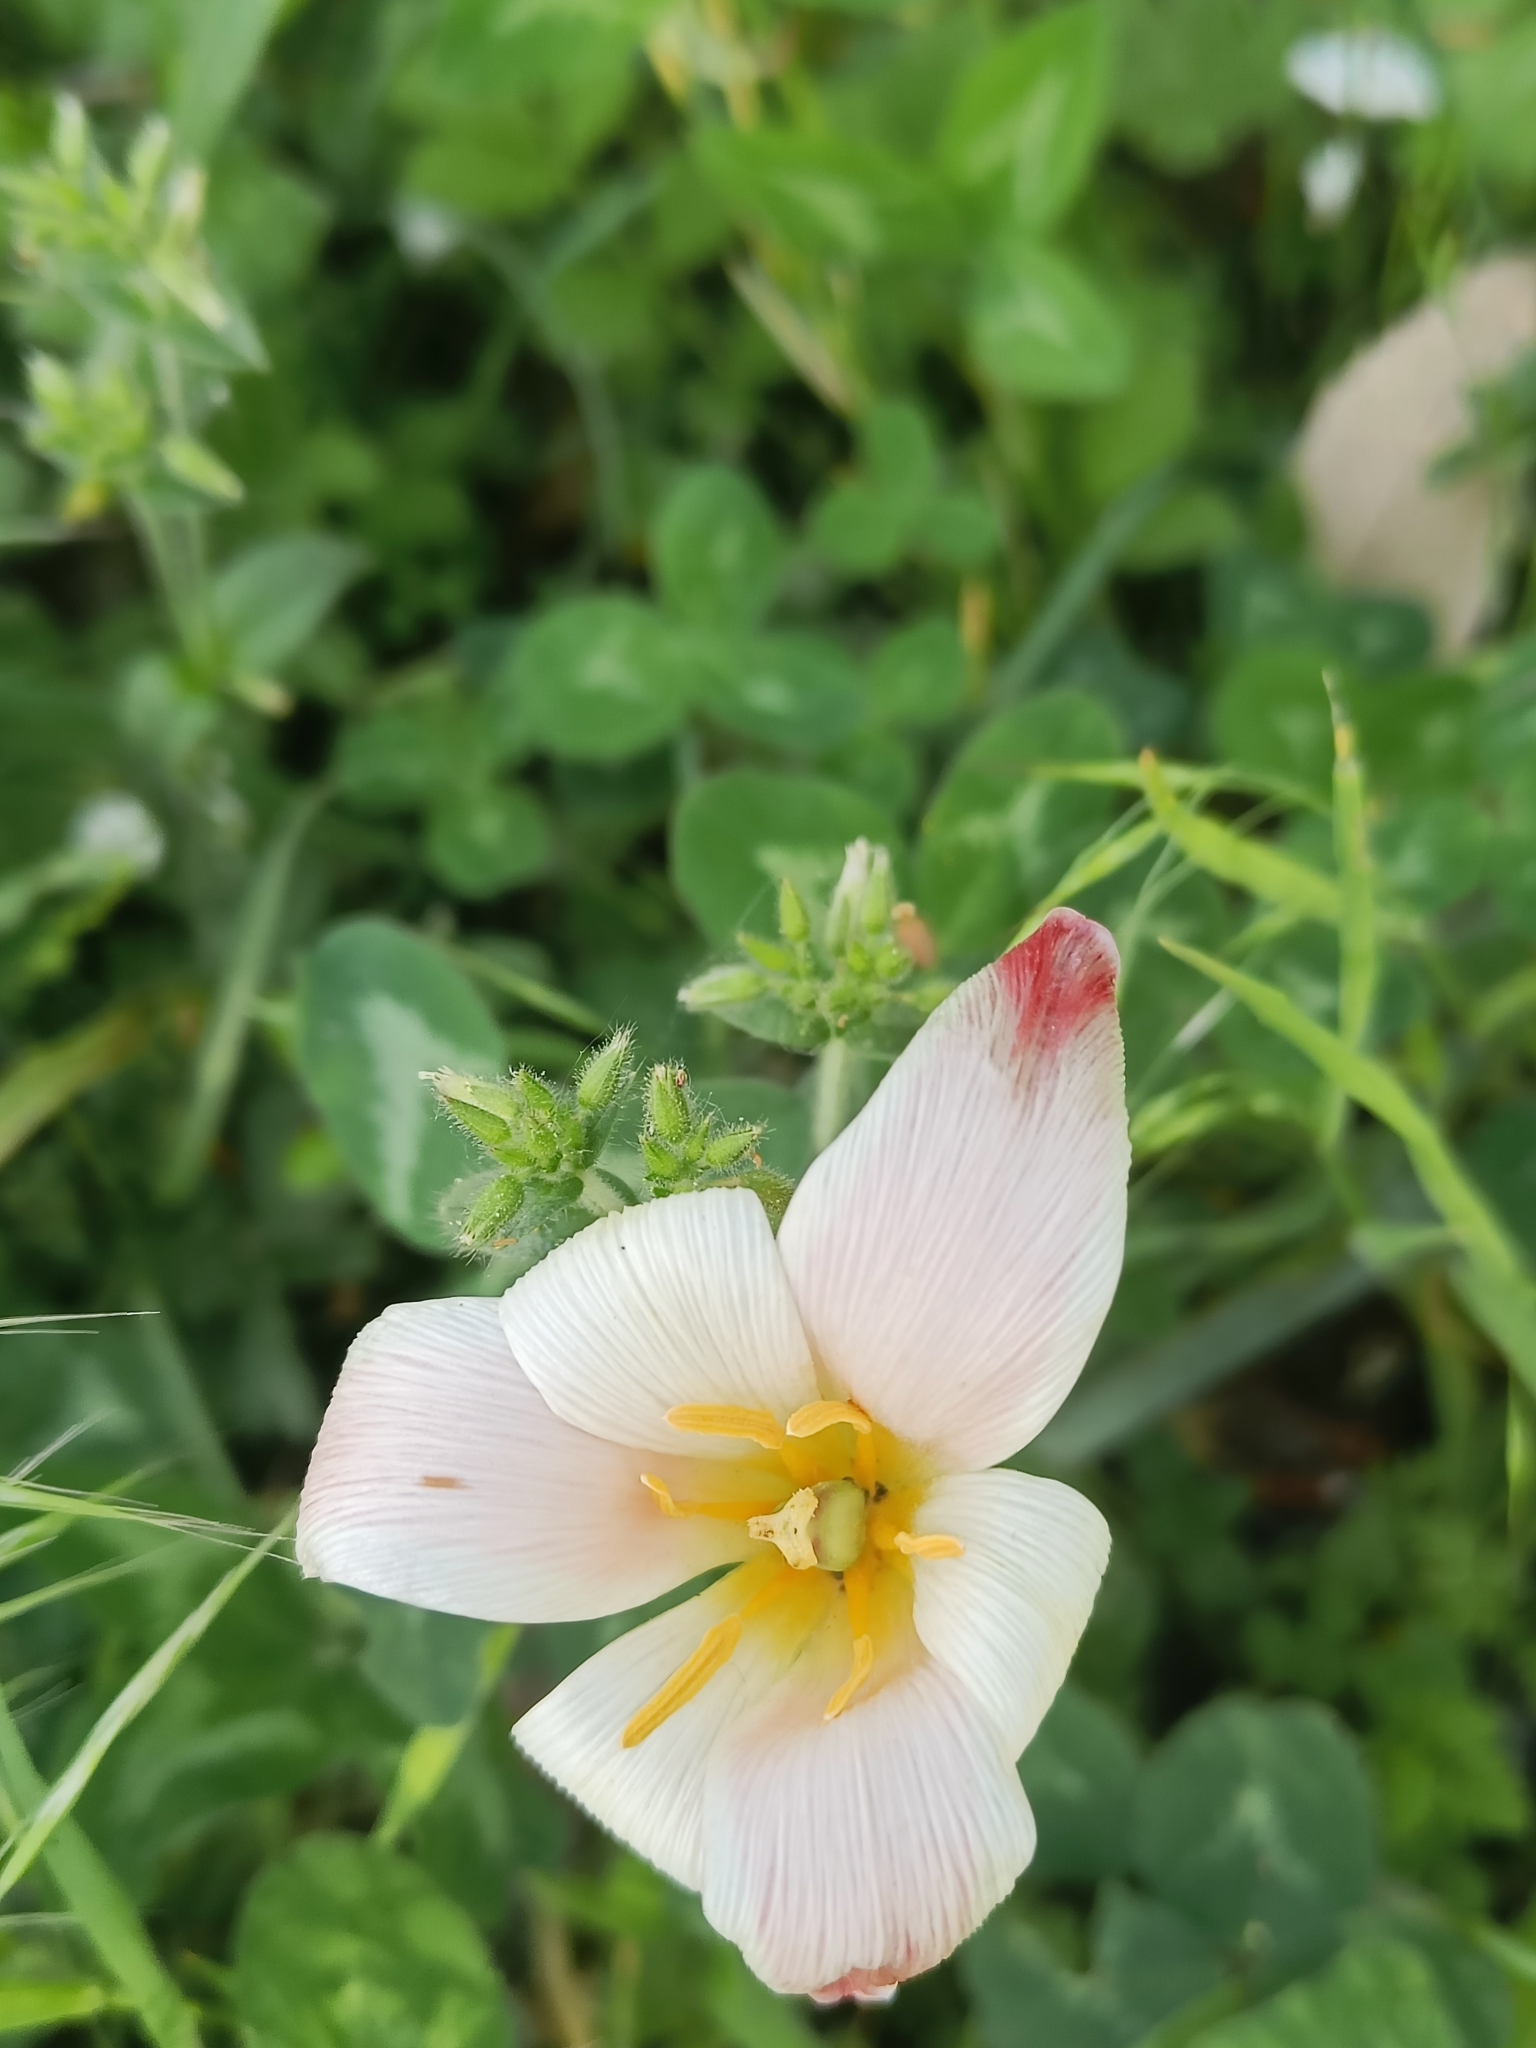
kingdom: Plantae
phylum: Tracheophyta
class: Liliopsida
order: Liliales
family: Liliaceae
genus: Tulipa
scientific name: Tulipa clusiana
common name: Lady tulip
